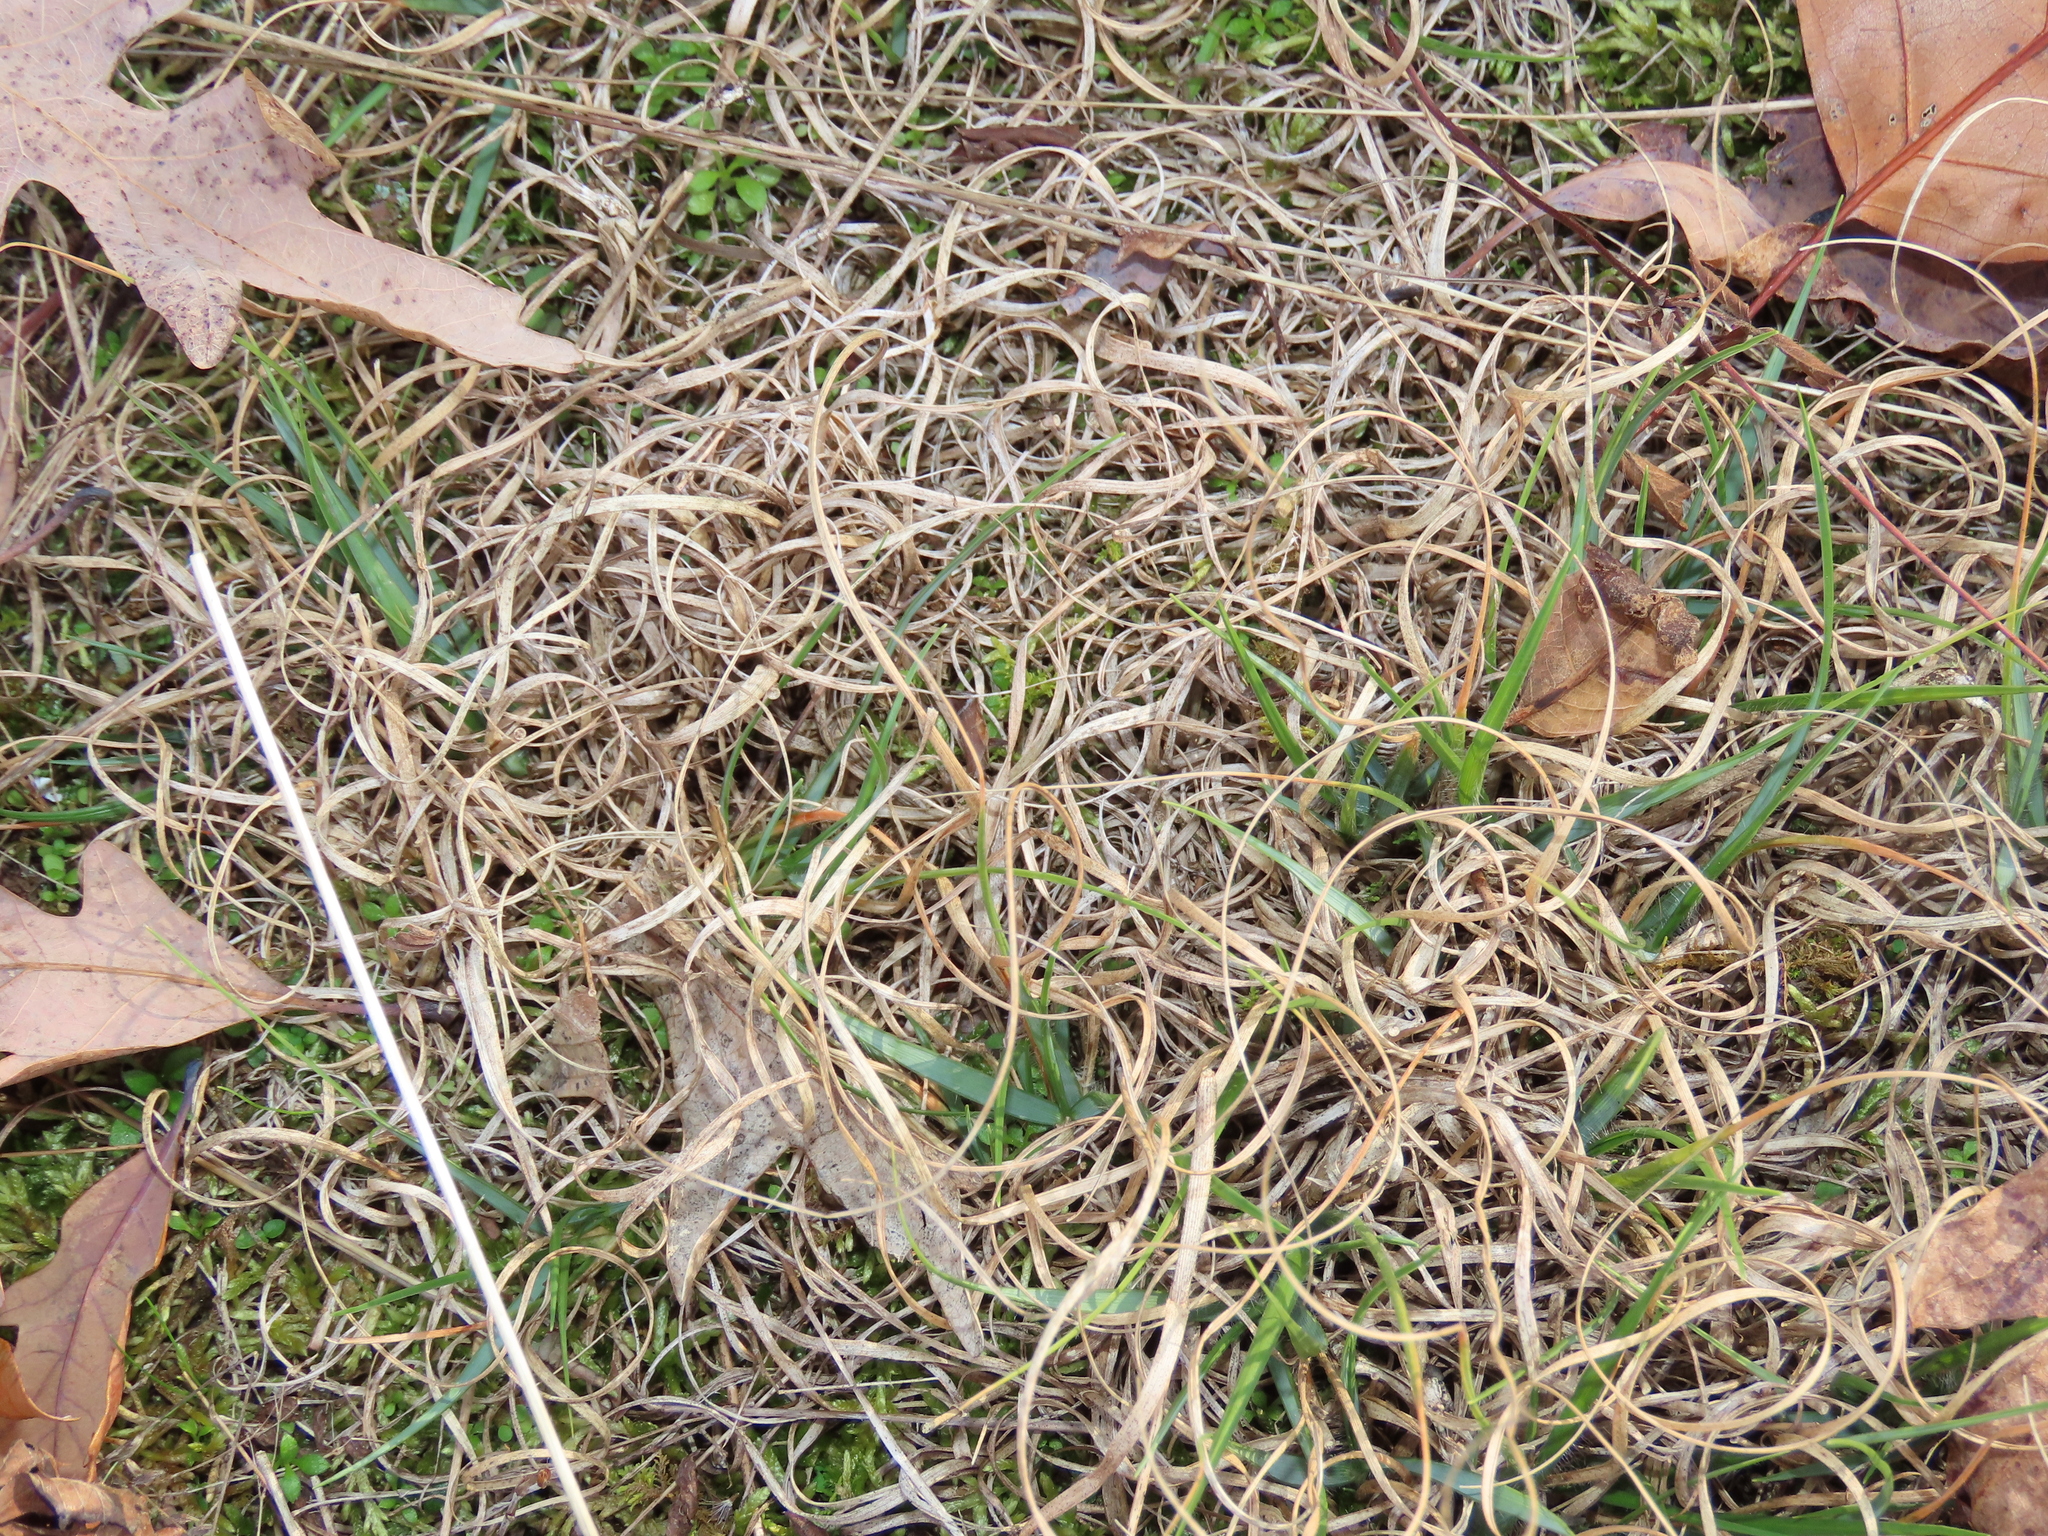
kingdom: Plantae
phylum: Tracheophyta
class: Liliopsida
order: Poales
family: Poaceae
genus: Danthonia
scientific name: Danthonia spicata
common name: Common wild oatgrass
